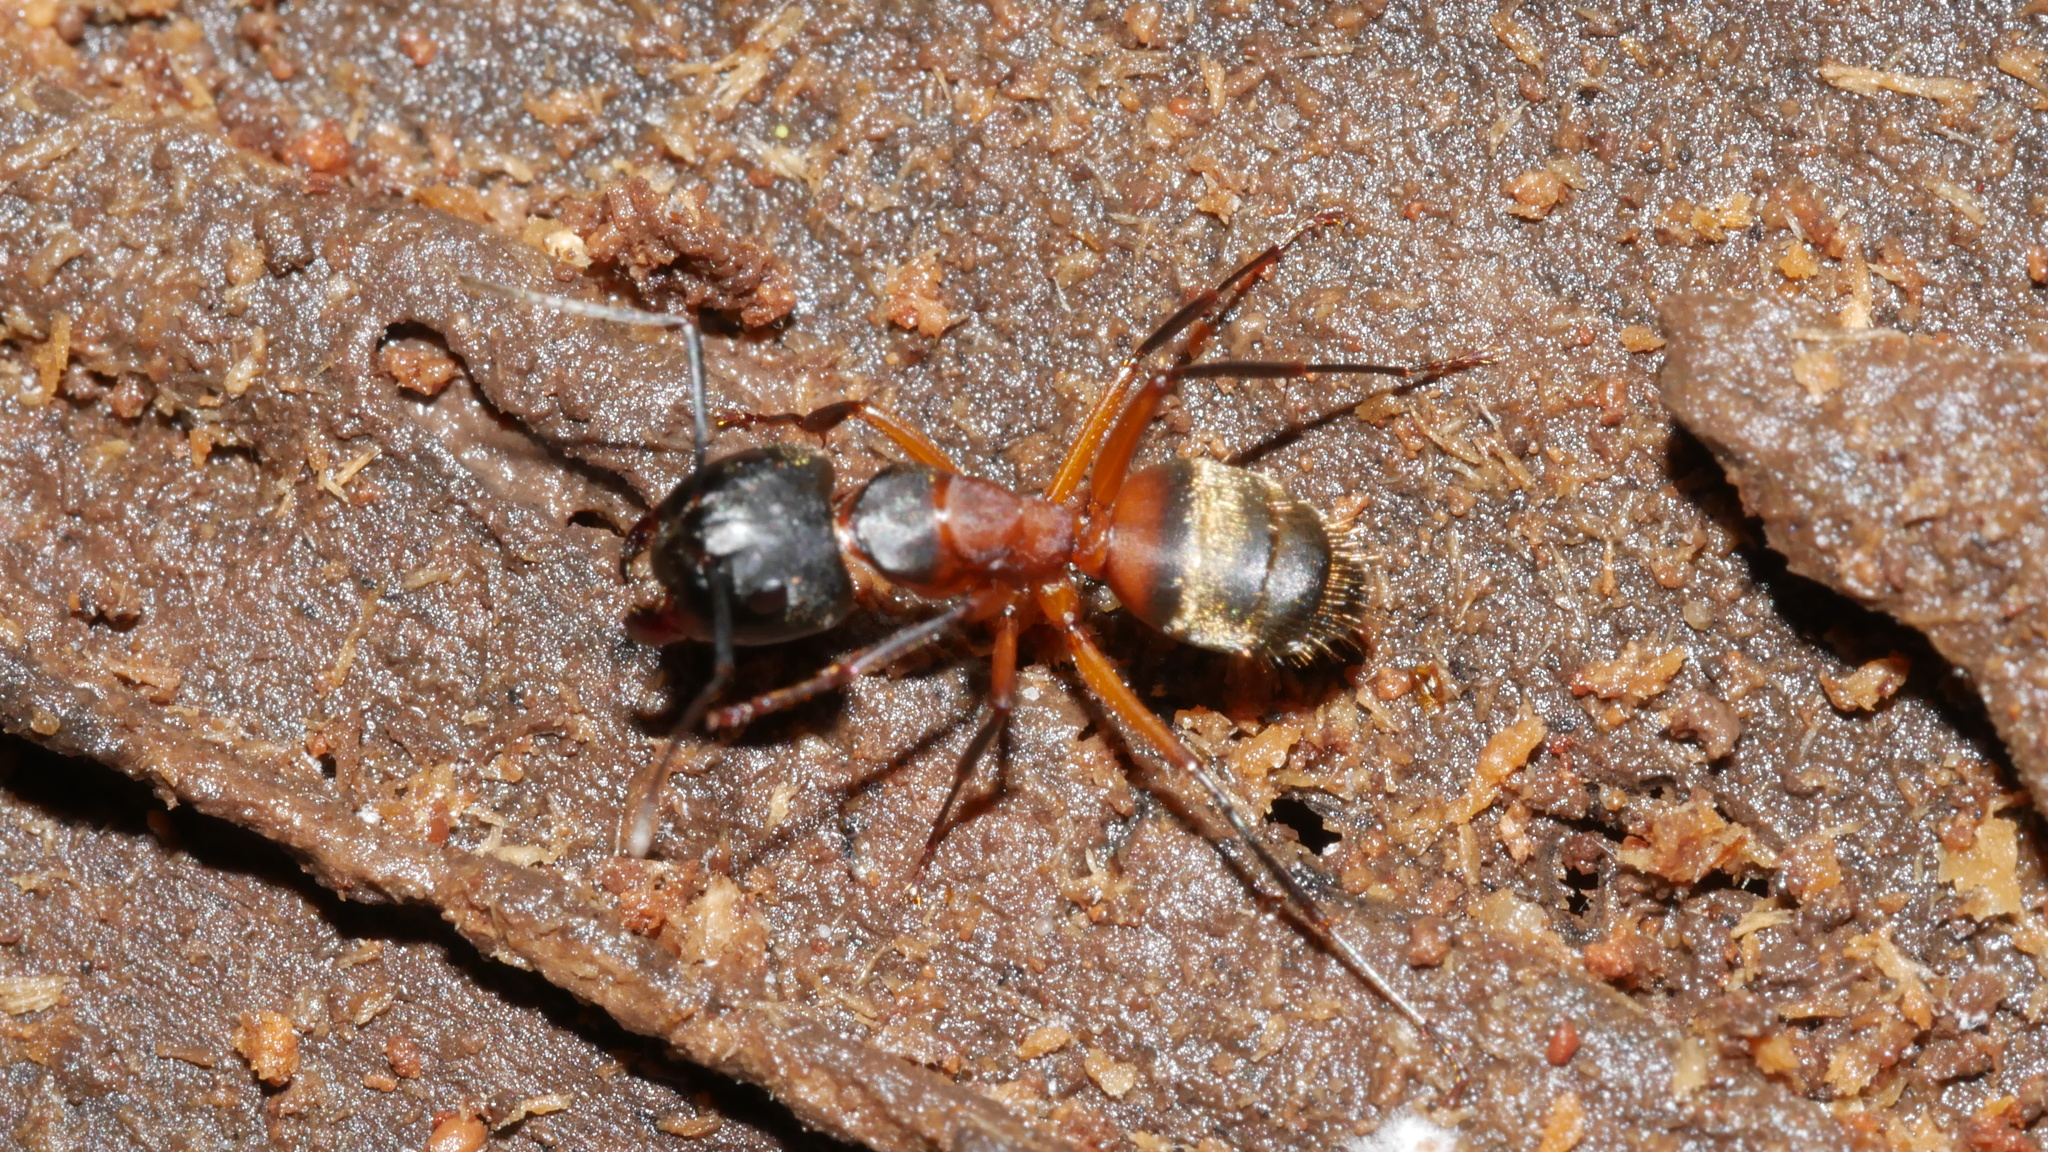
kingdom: Animalia
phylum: Arthropoda
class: Insecta
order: Hymenoptera
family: Formicidae
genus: Camponotus
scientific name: Camponotus chromaiodes
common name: Red carpenter ant
